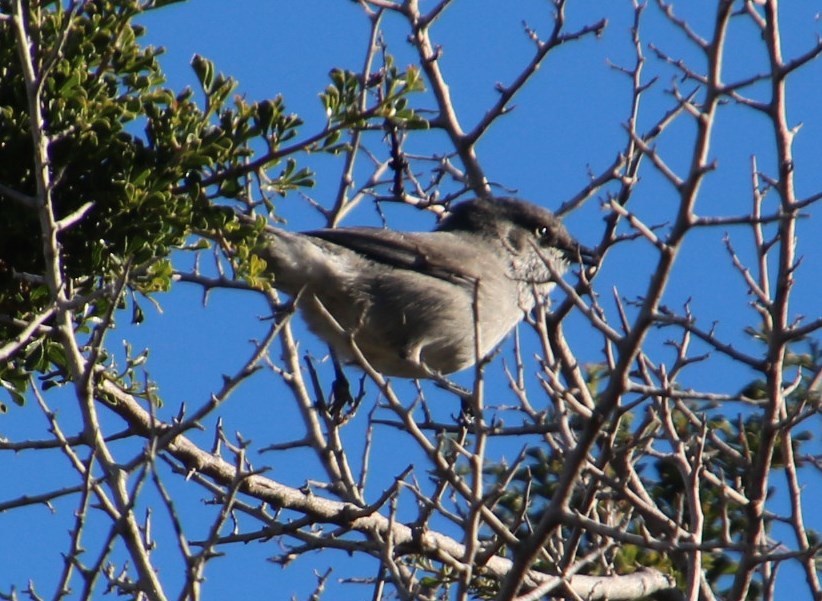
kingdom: Animalia
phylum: Chordata
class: Aves
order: Passeriformes
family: Sylviidae
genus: Sylvia
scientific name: Sylvia layardi
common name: Layard's warbler
